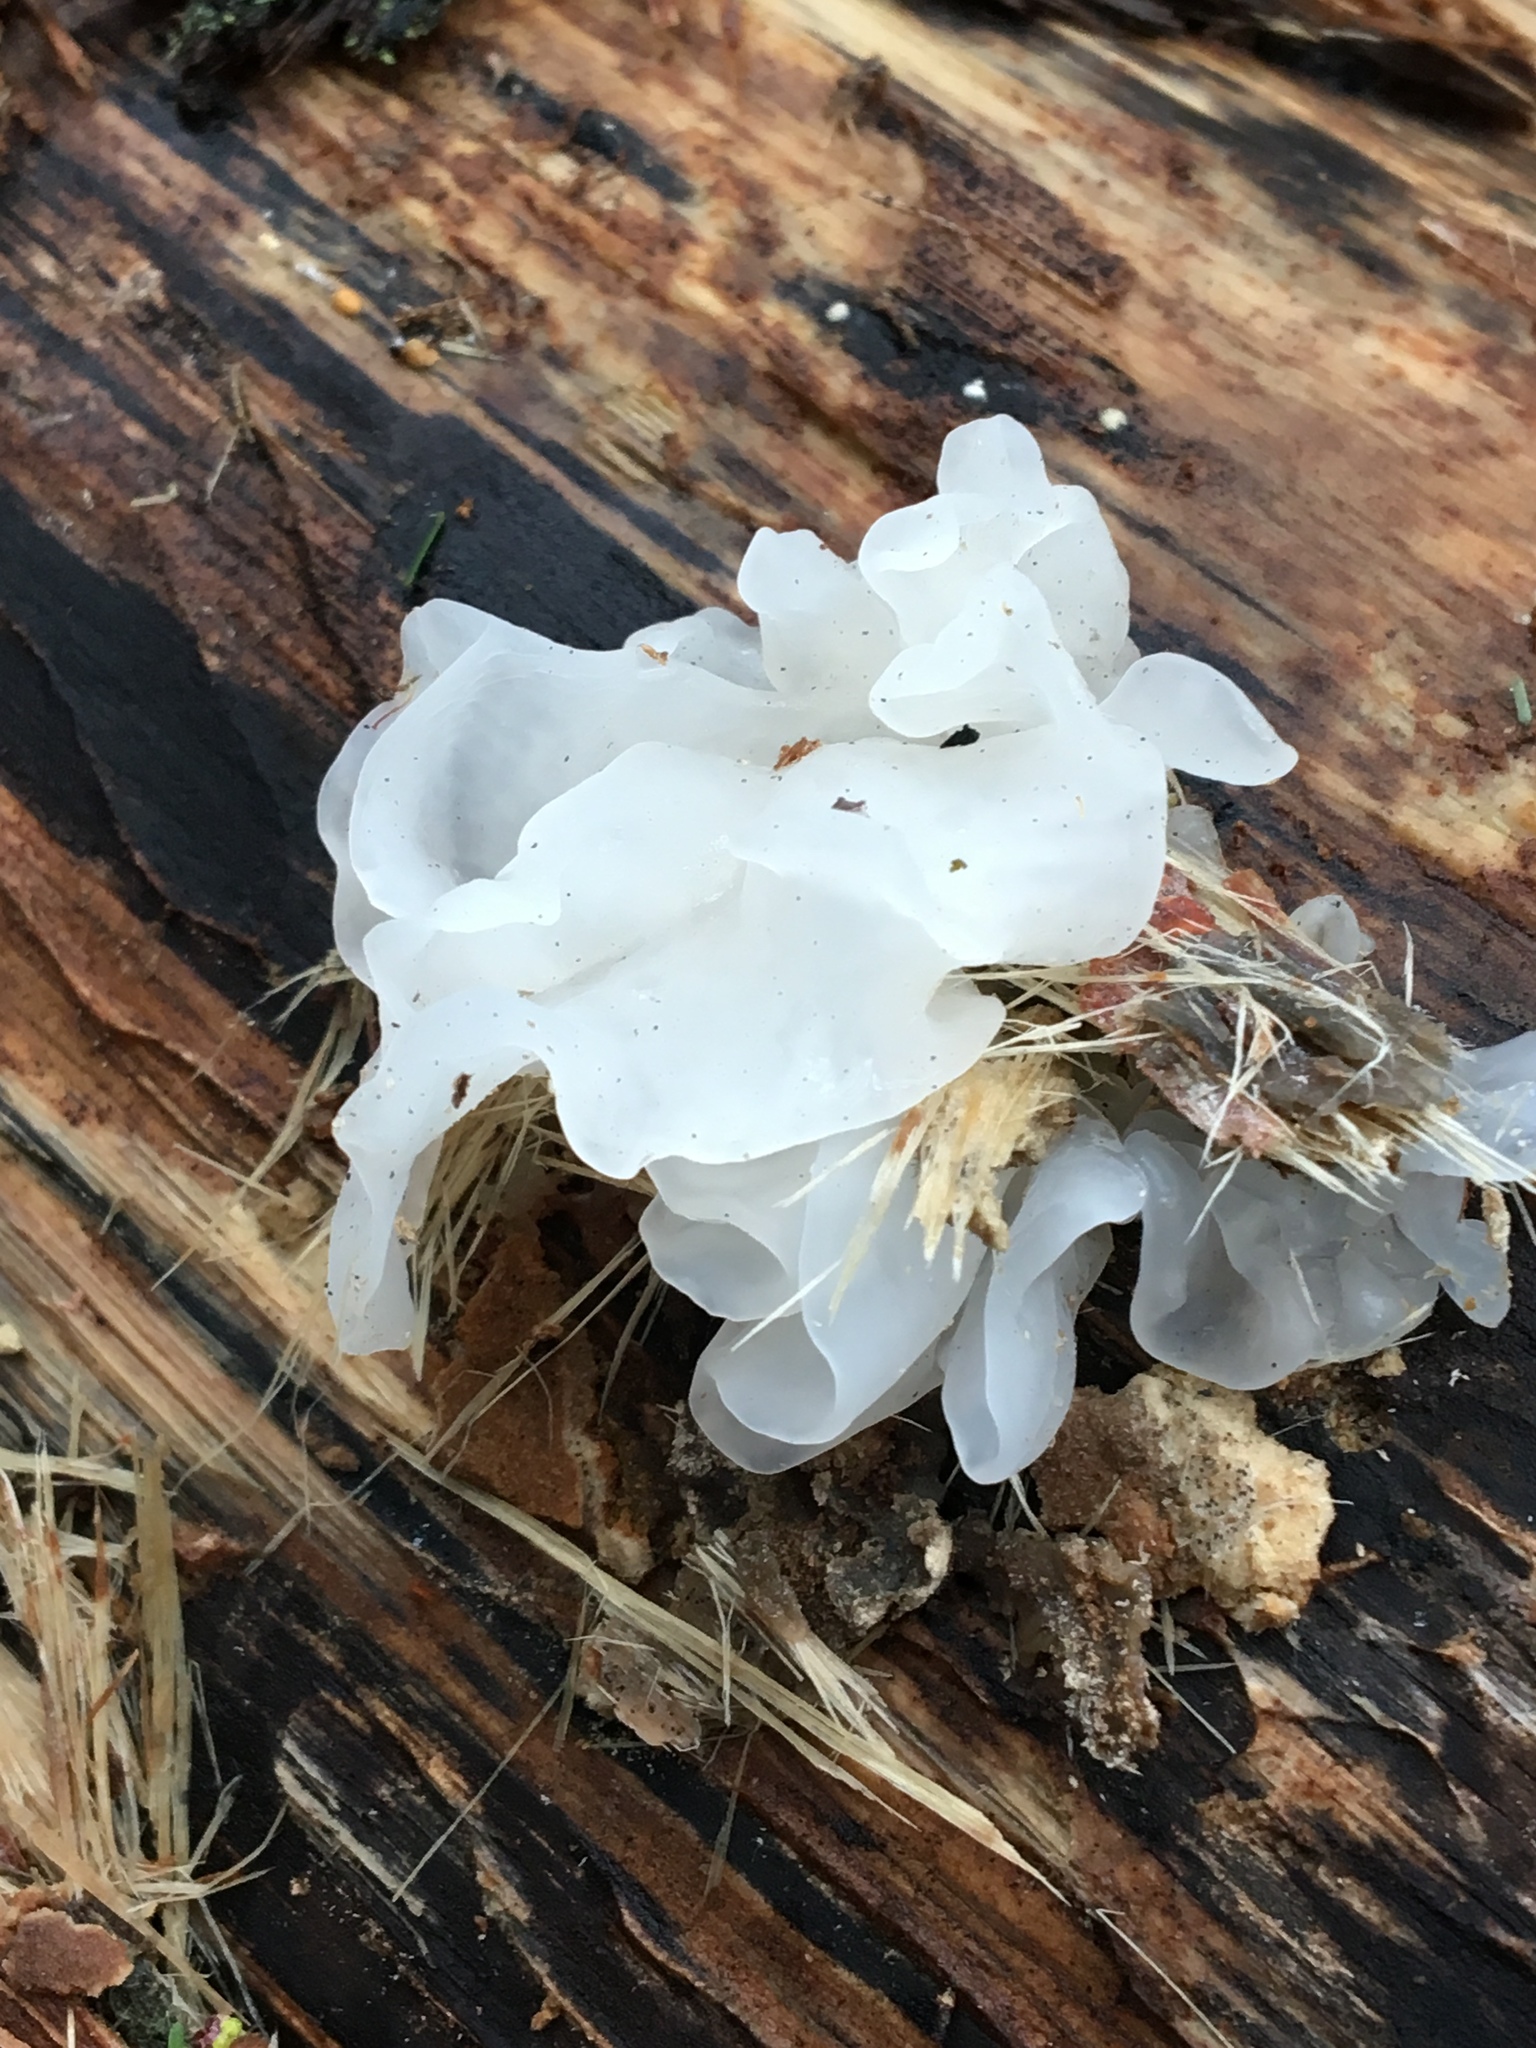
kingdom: Fungi
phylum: Basidiomycota
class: Tremellomycetes
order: Tremellales
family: Tremellaceae
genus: Tremella
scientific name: Tremella fuciformis
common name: Snow fungus
